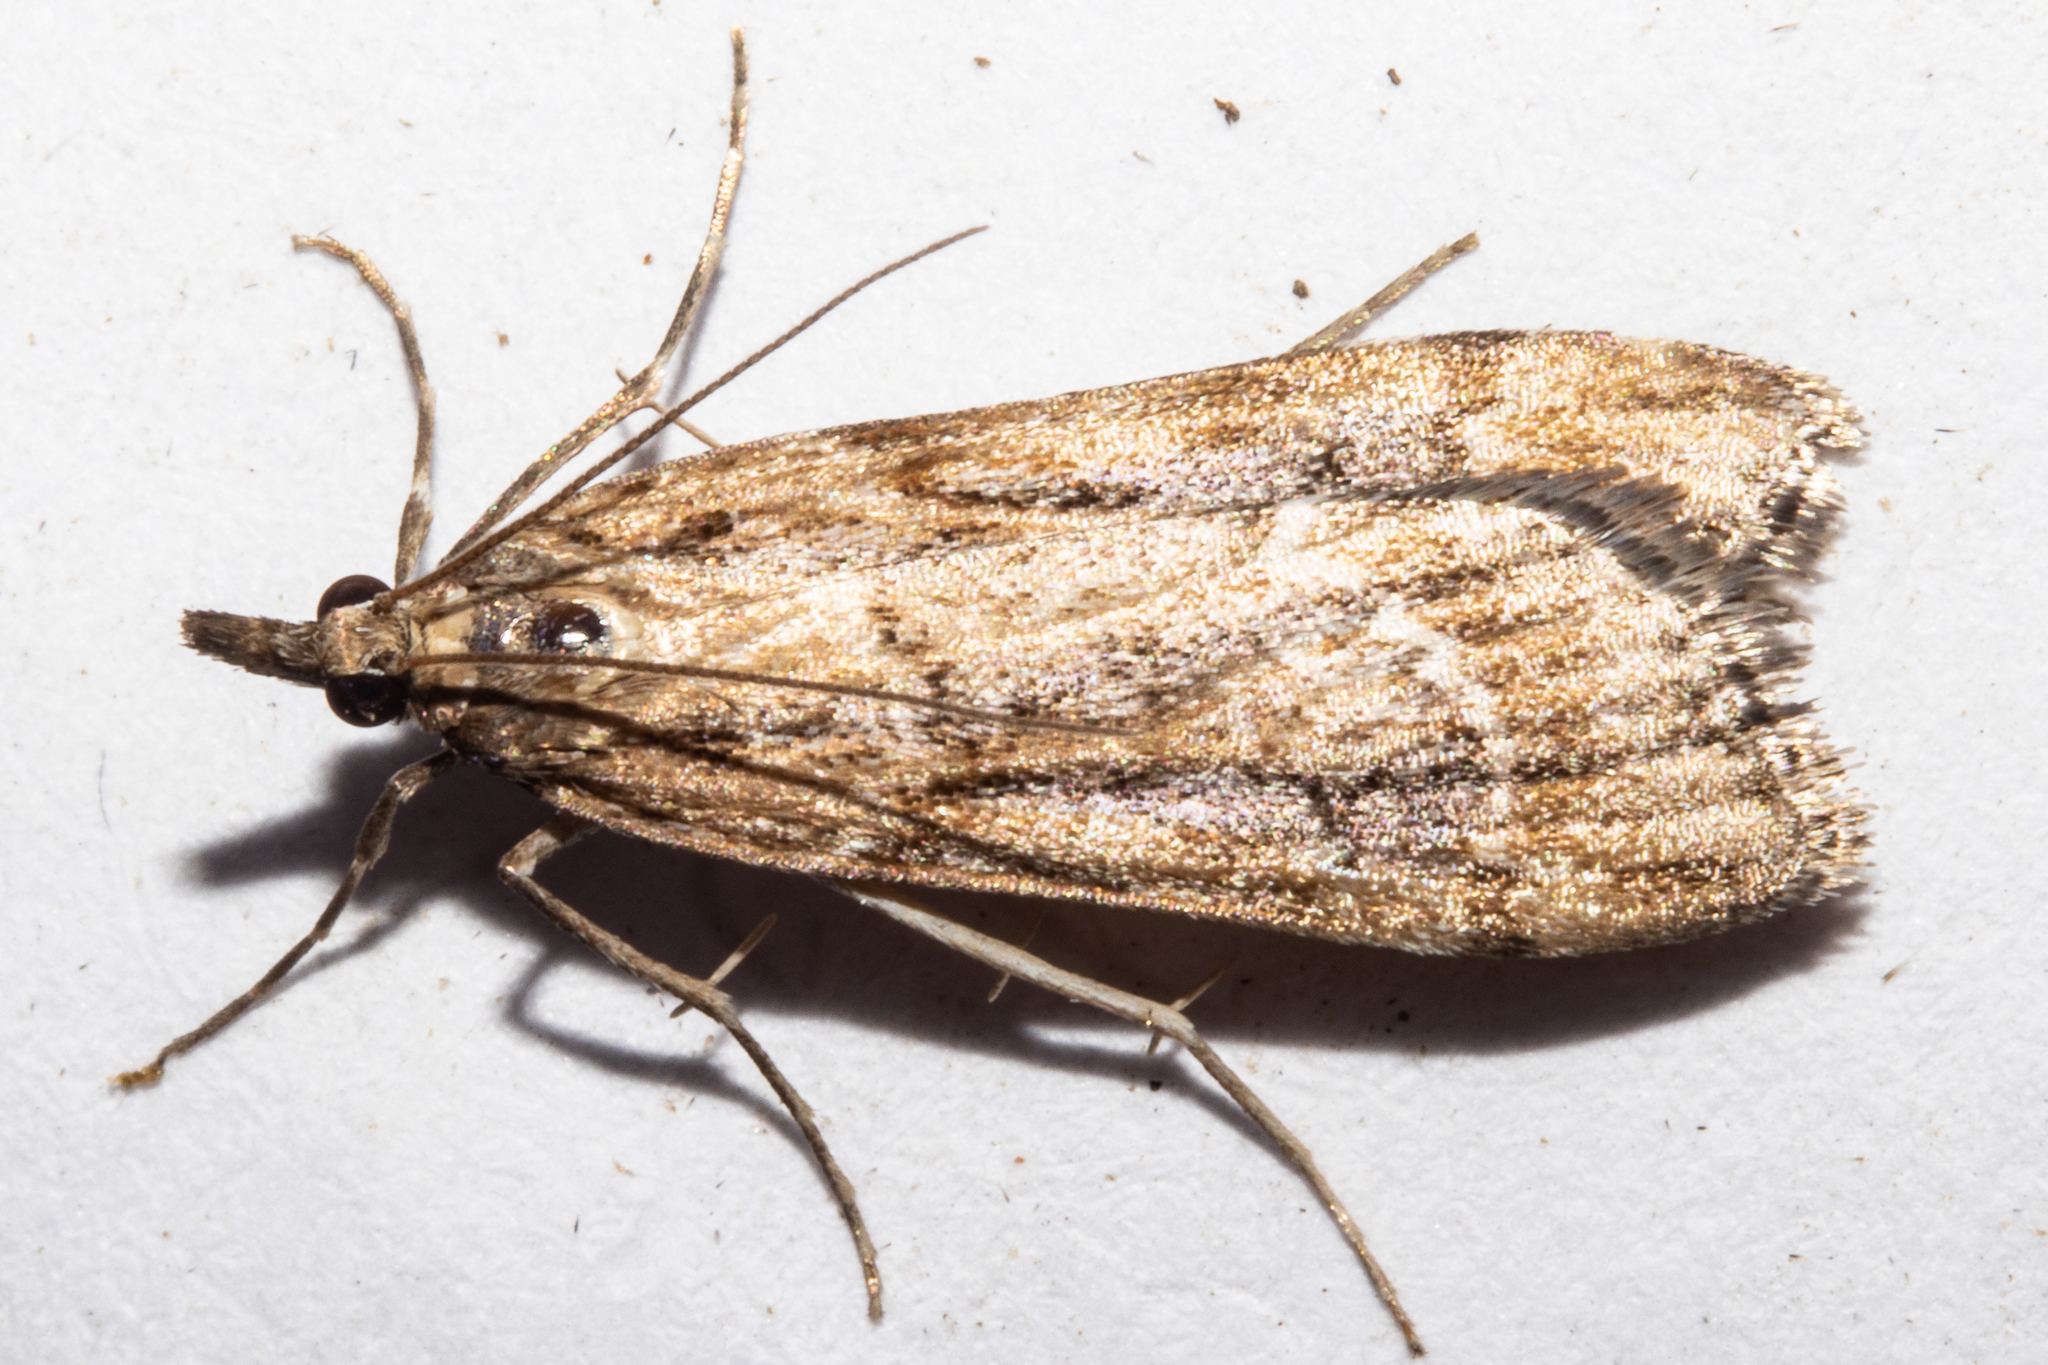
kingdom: Animalia
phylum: Arthropoda
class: Insecta
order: Lepidoptera
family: Crambidae
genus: Eudonia
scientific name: Eudonia chalara
